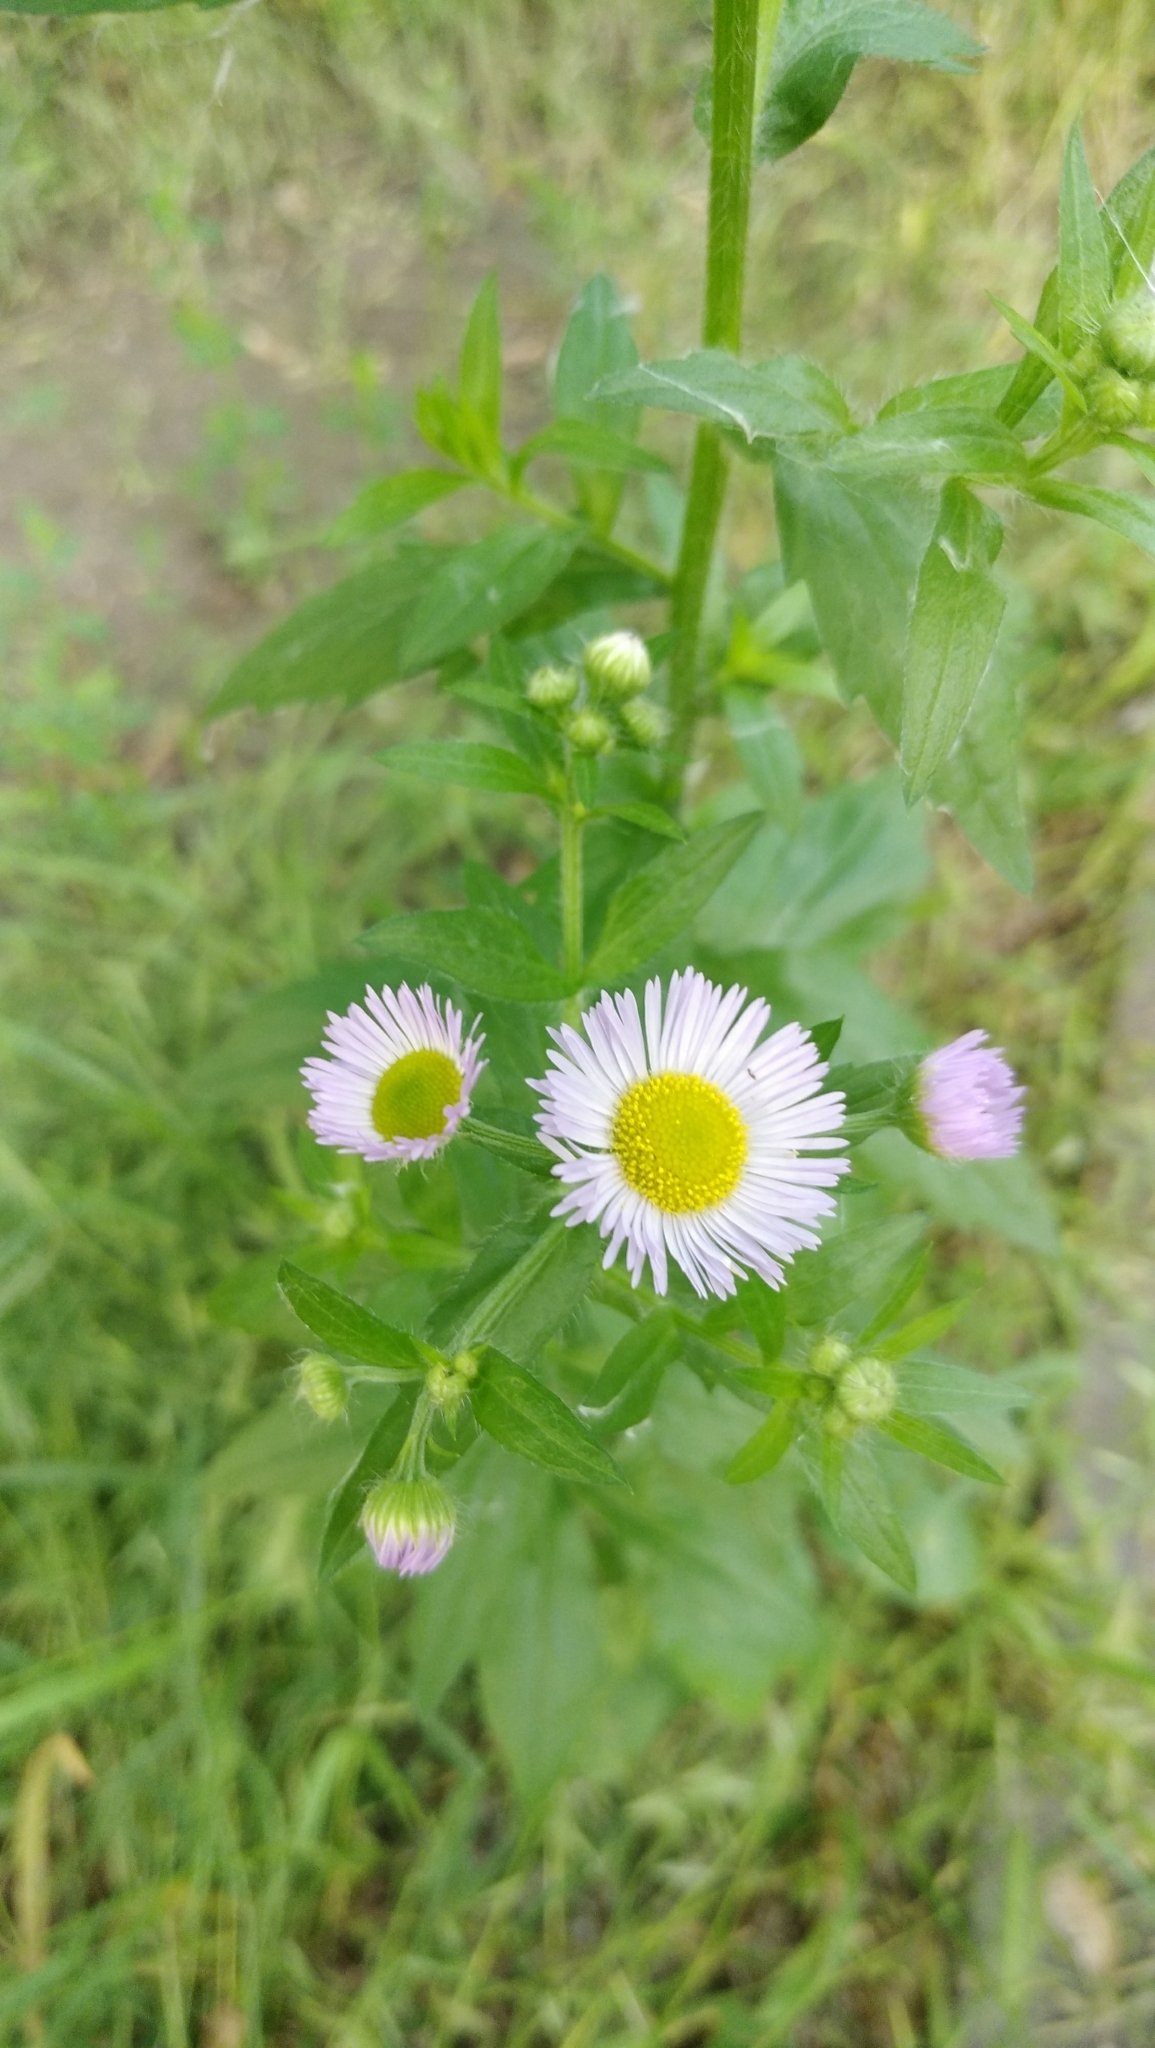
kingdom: Plantae
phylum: Tracheophyta
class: Magnoliopsida
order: Asterales
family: Asteraceae
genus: Erigeron
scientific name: Erigeron annuus
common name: Tall fleabane
